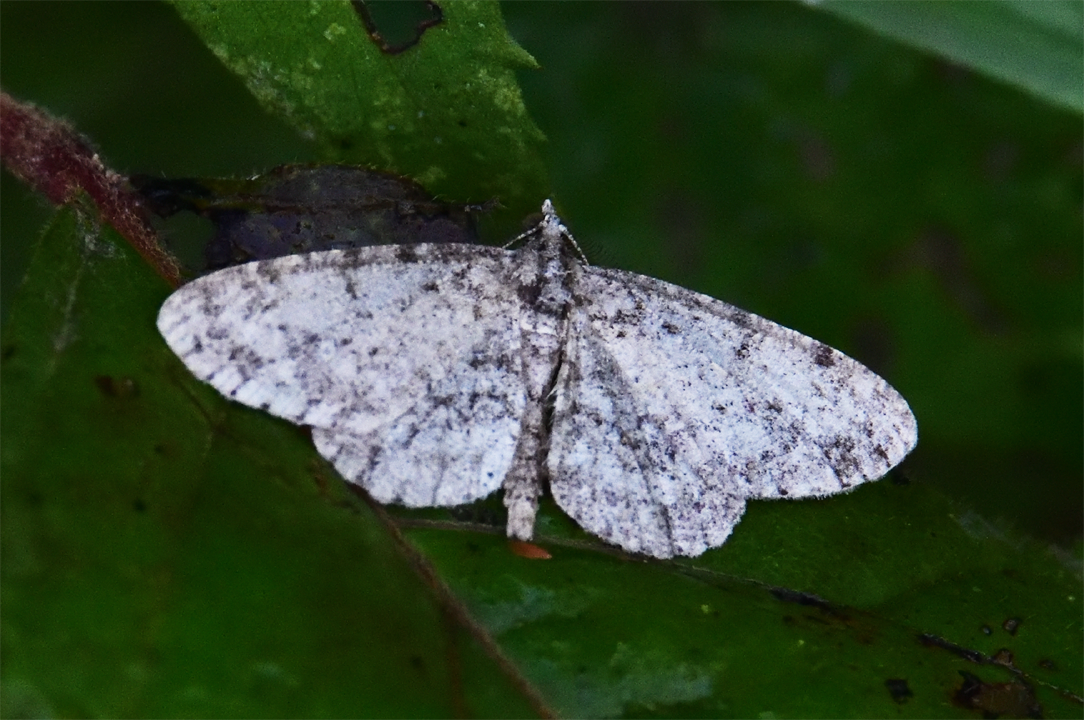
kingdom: Animalia
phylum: Arthropoda
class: Insecta
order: Lepidoptera
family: Geometridae
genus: Protoboarmia
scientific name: Protoboarmia porcelaria
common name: Porcelain gray
